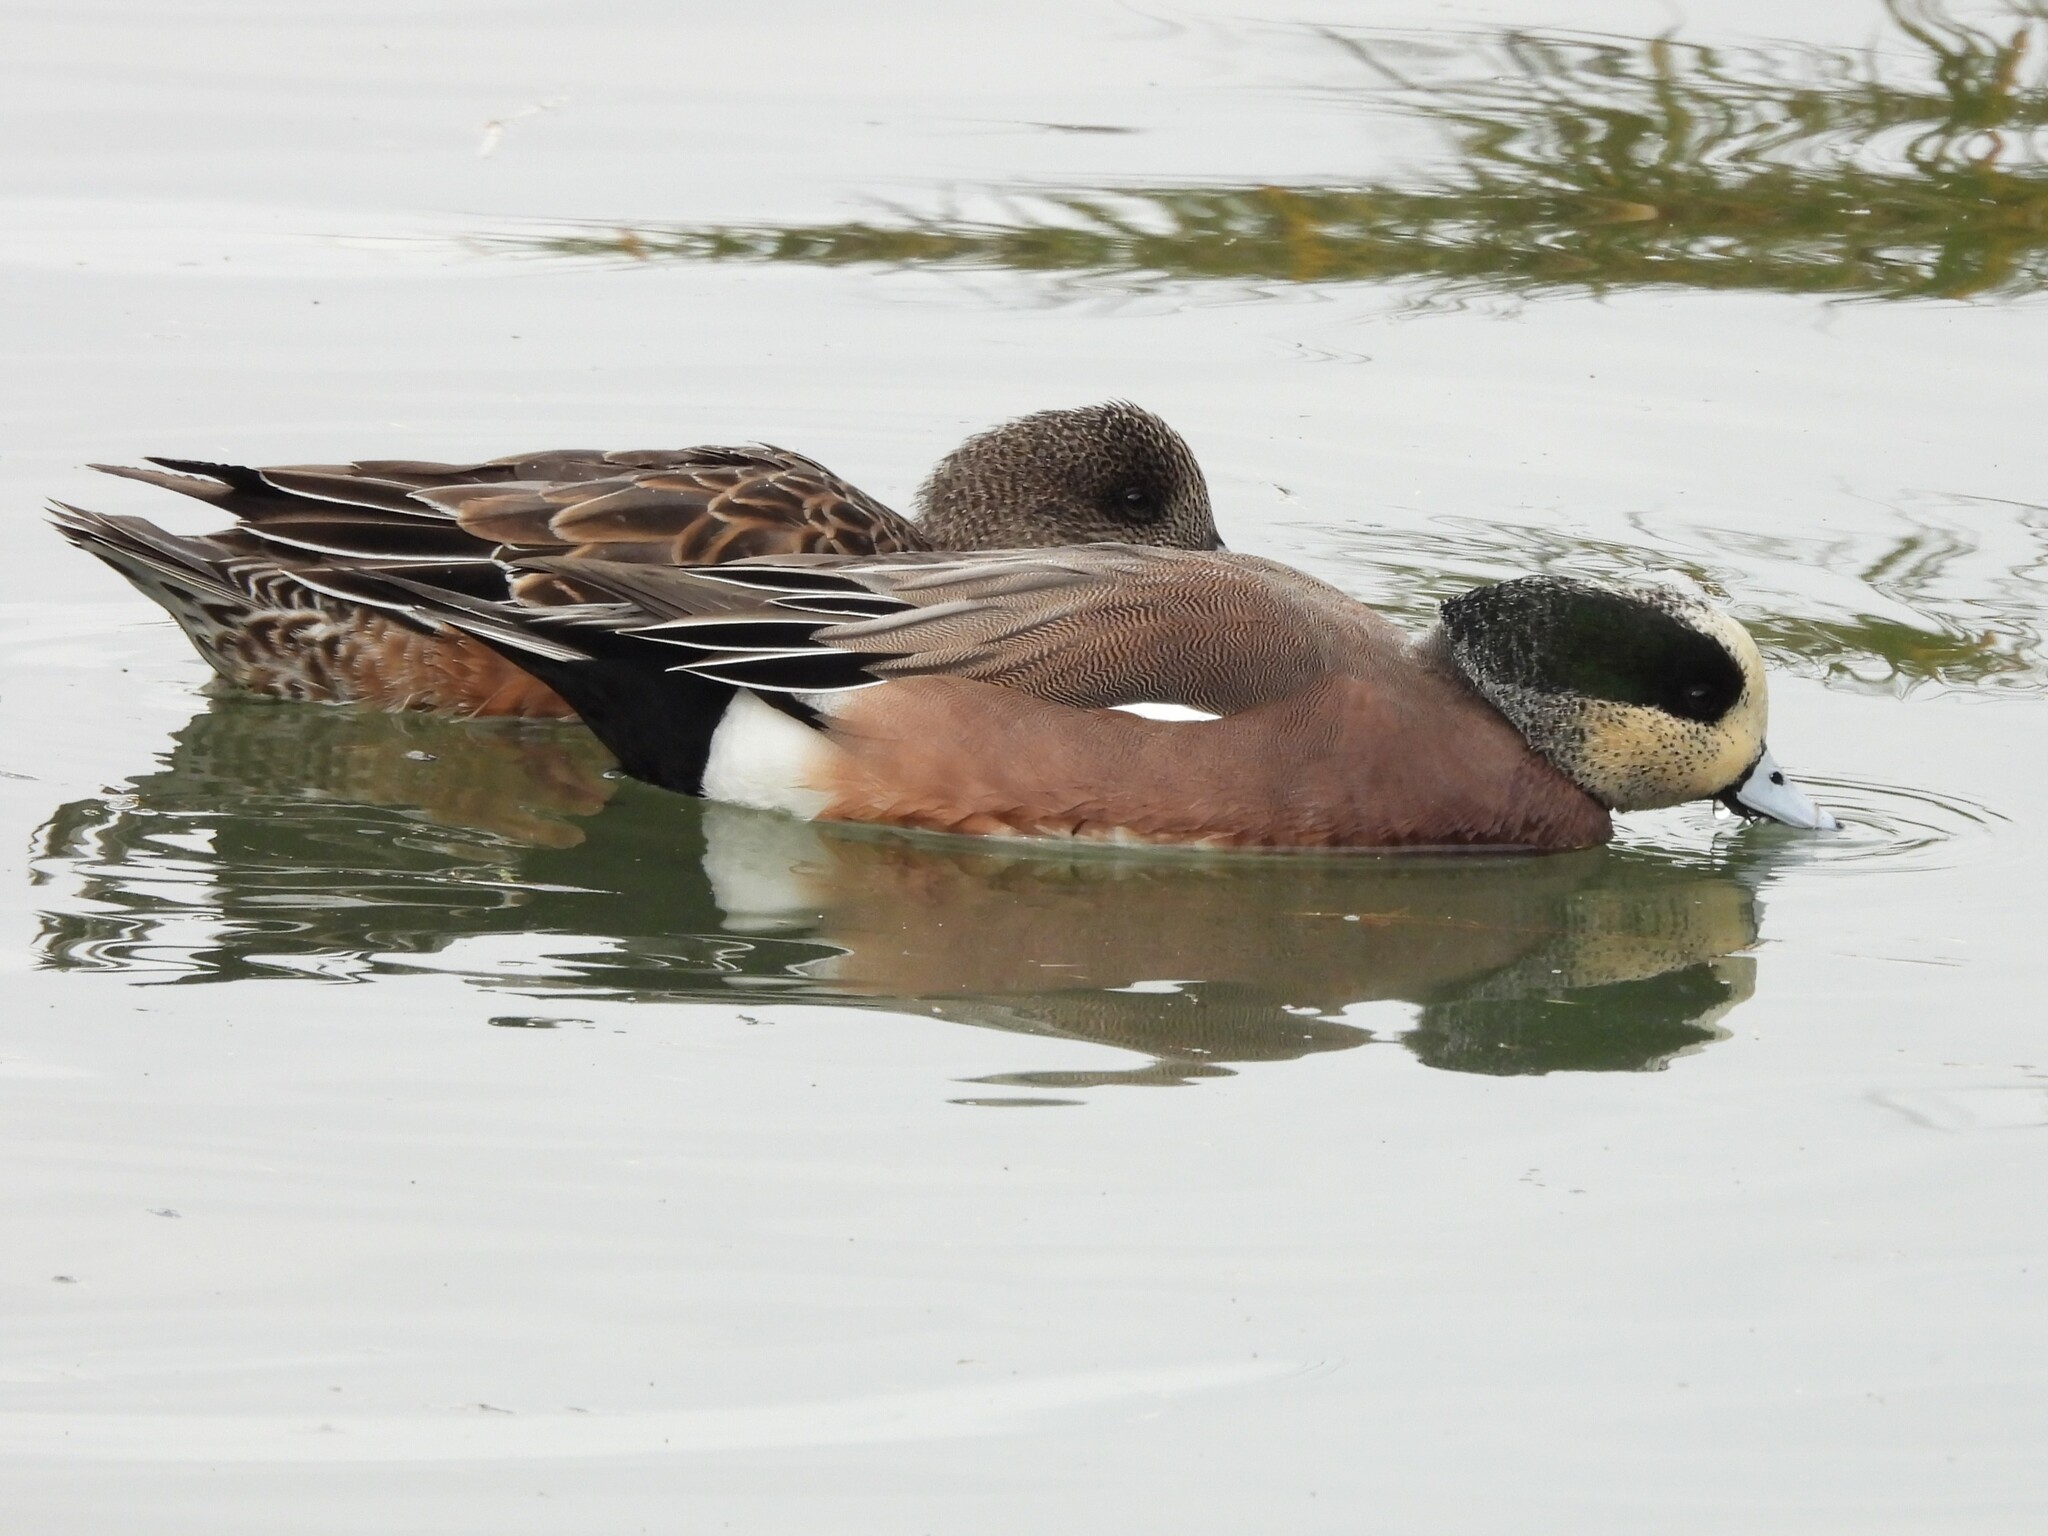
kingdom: Animalia
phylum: Chordata
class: Aves
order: Anseriformes
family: Anatidae
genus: Mareca
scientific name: Mareca americana
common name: American wigeon
